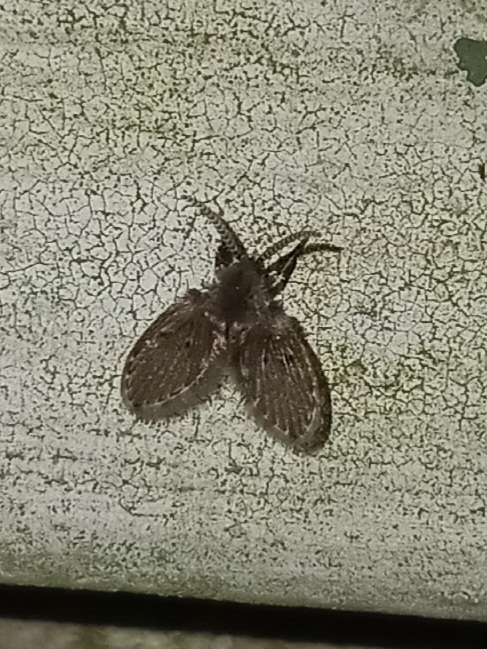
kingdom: Animalia
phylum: Arthropoda
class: Insecta
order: Diptera
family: Psychodidae
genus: Clogmia
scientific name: Clogmia albipunctatus
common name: White-spotted moth fly
